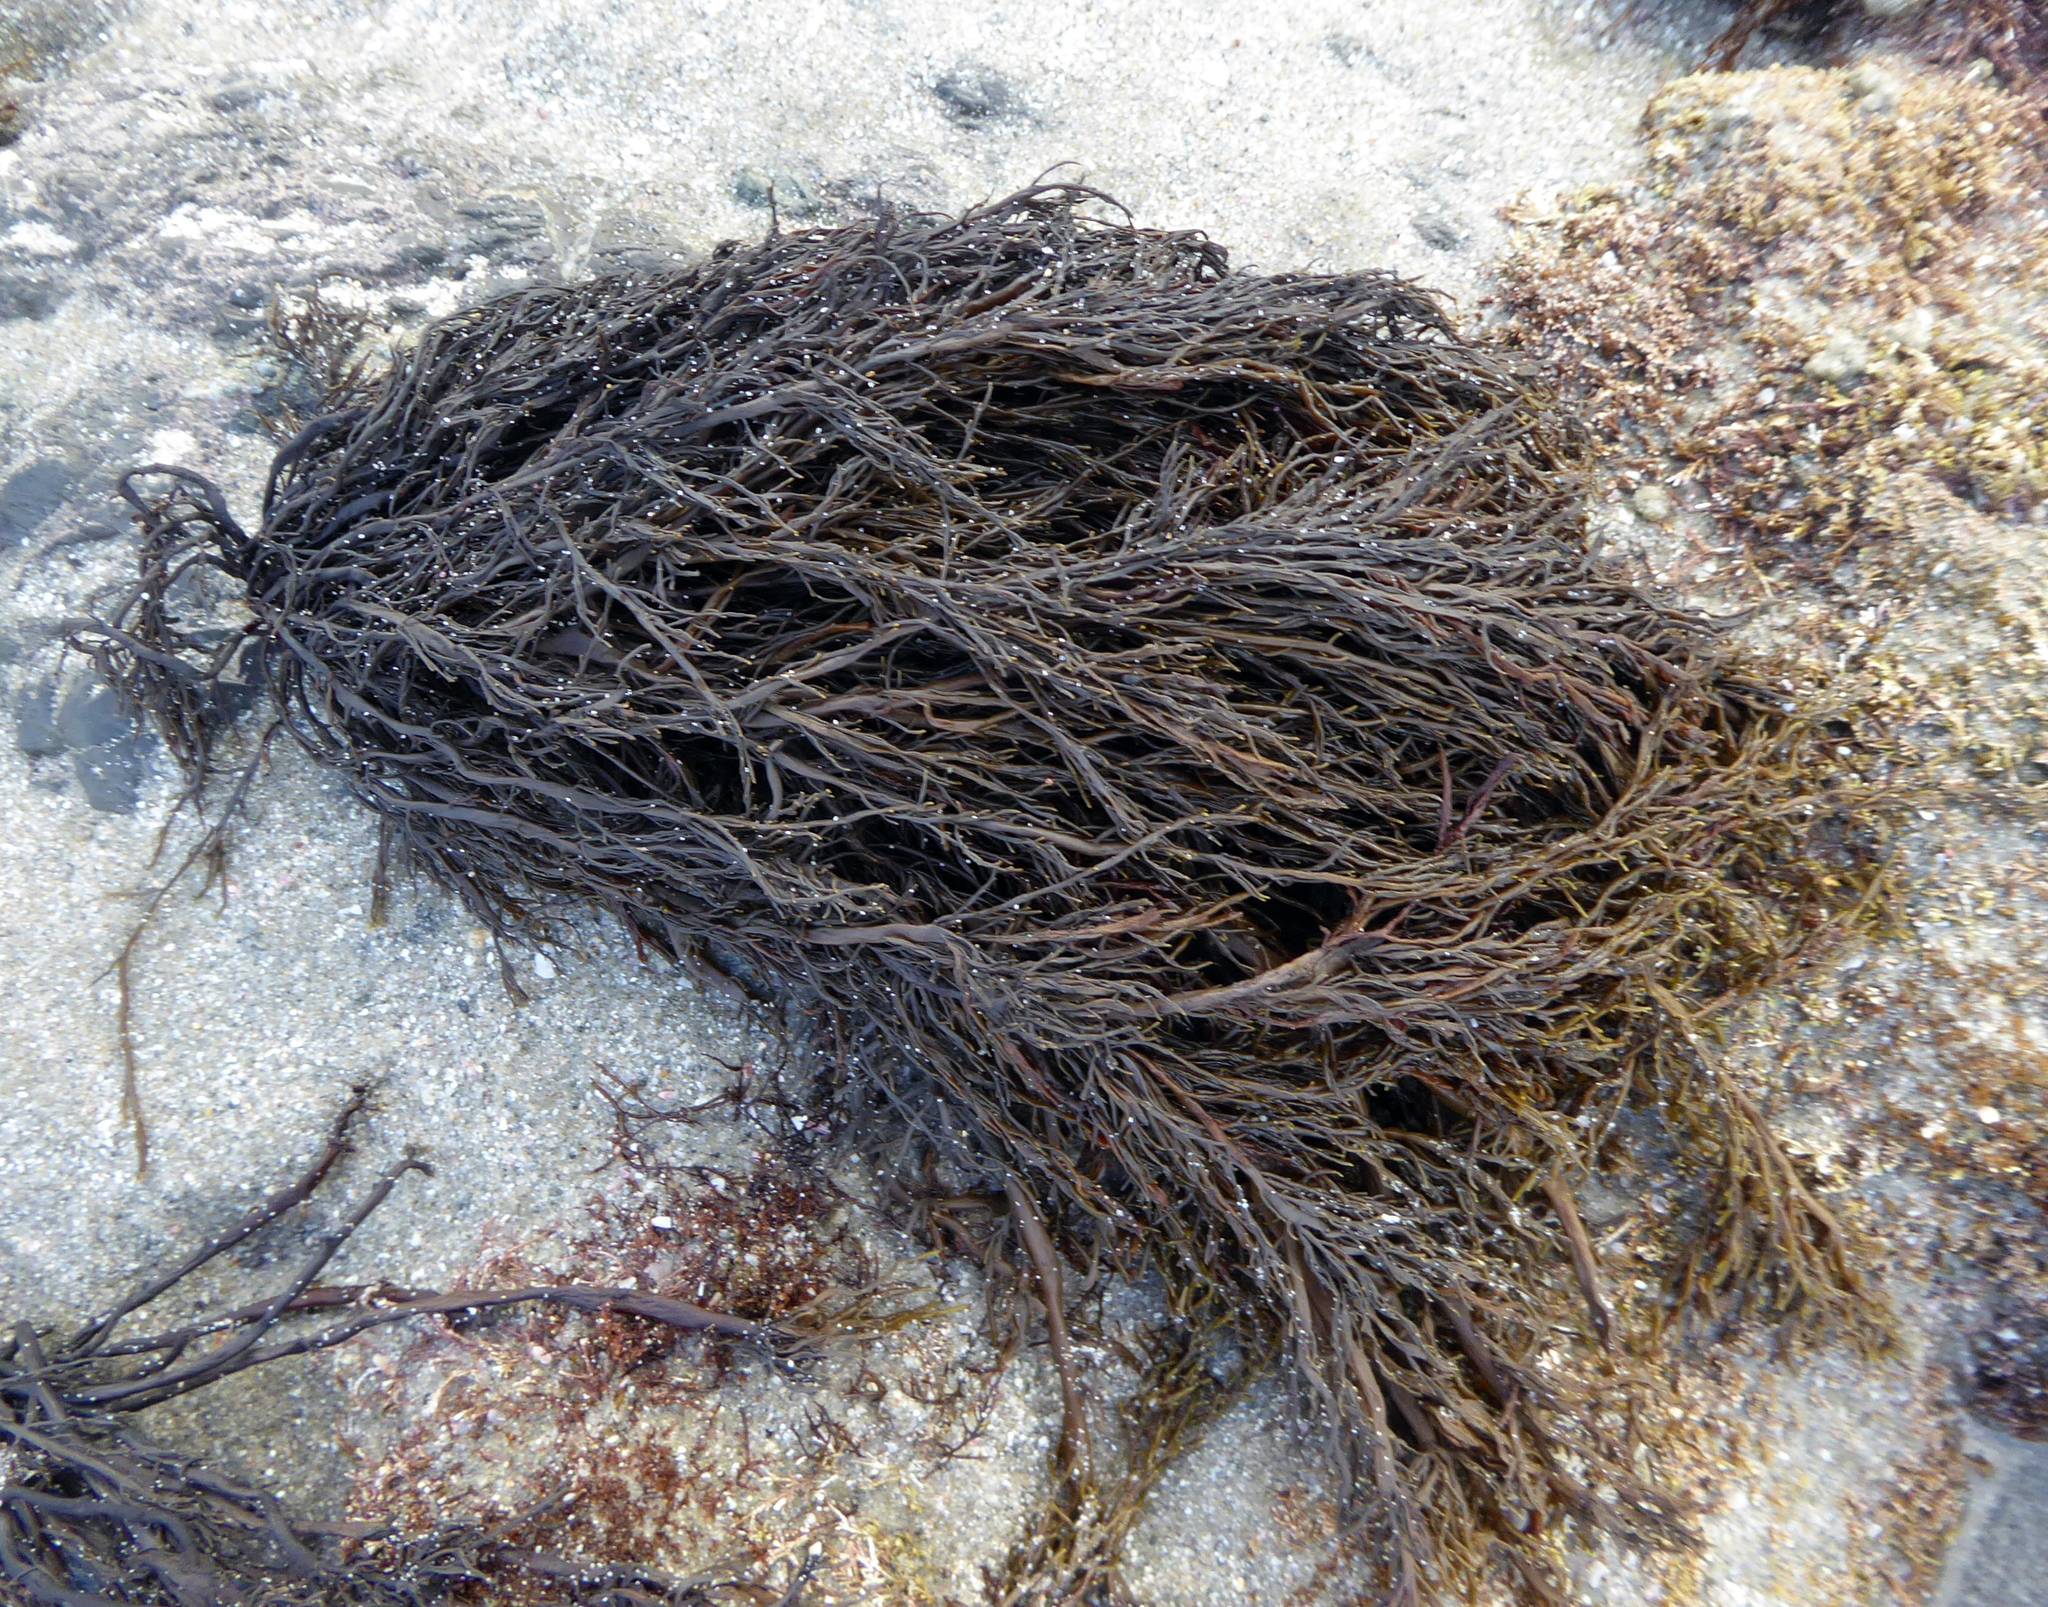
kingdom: Chromista
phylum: Ochrophyta
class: Phaeophyceae
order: Scytothamnales
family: Scytothamnaceae
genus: Scytothamnus
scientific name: Scytothamnus australis
